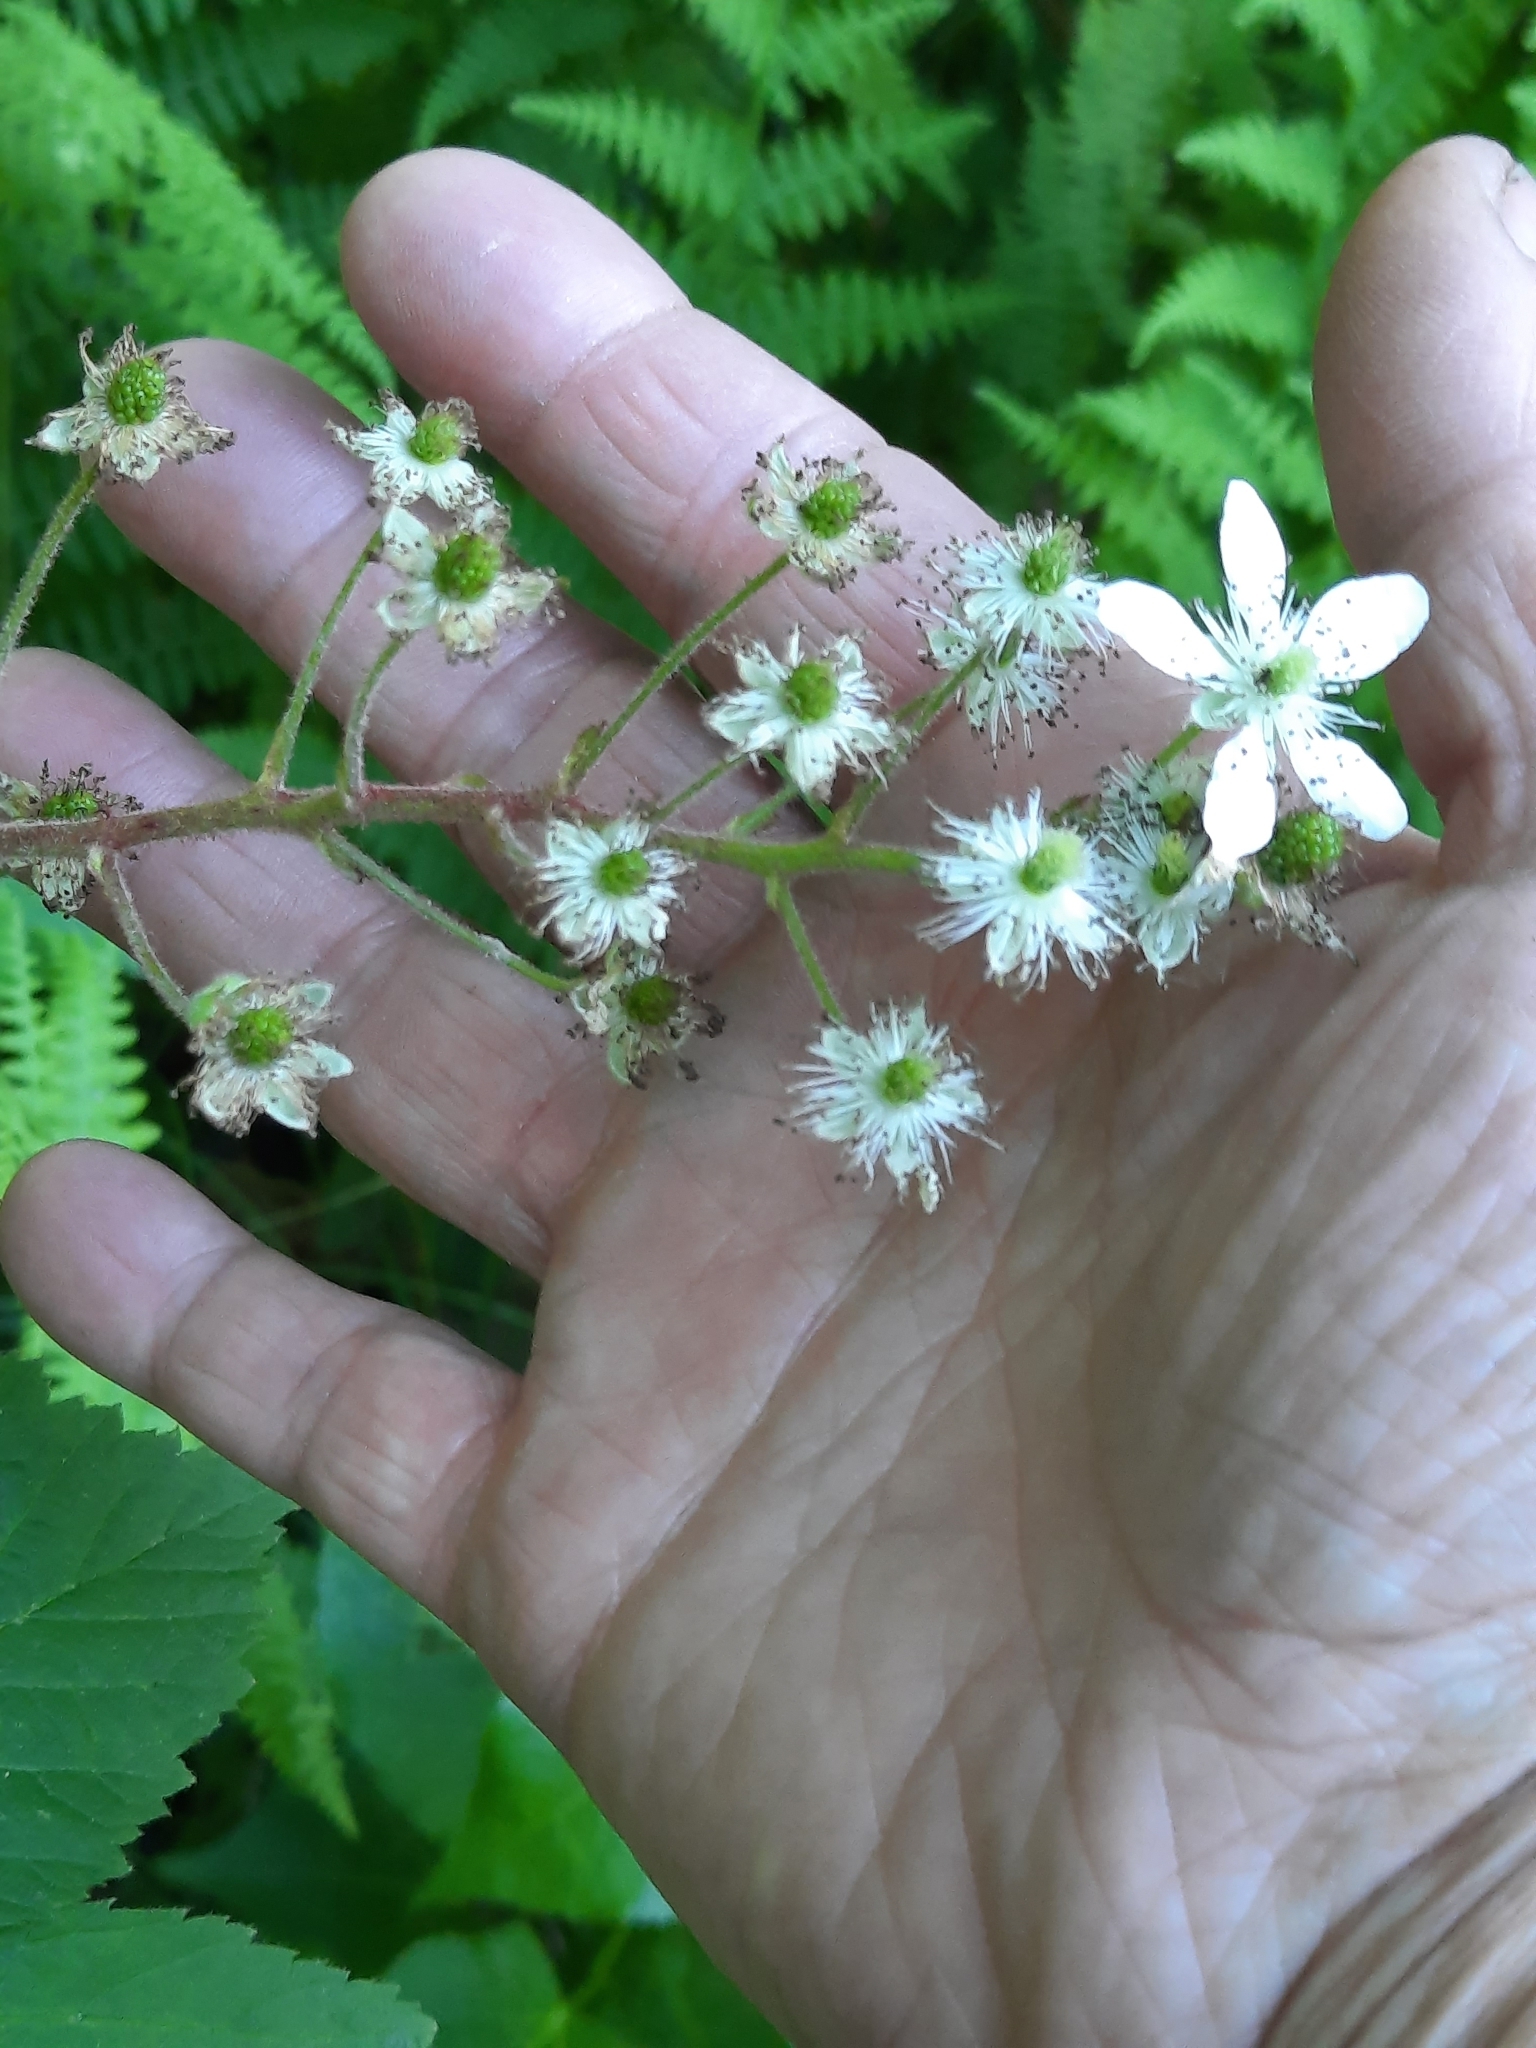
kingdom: Plantae
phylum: Tracheophyta
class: Magnoliopsida
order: Rosales
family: Rosaceae
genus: Rubus
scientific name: Rubus allegheniensis
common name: Allegheny blackberry
